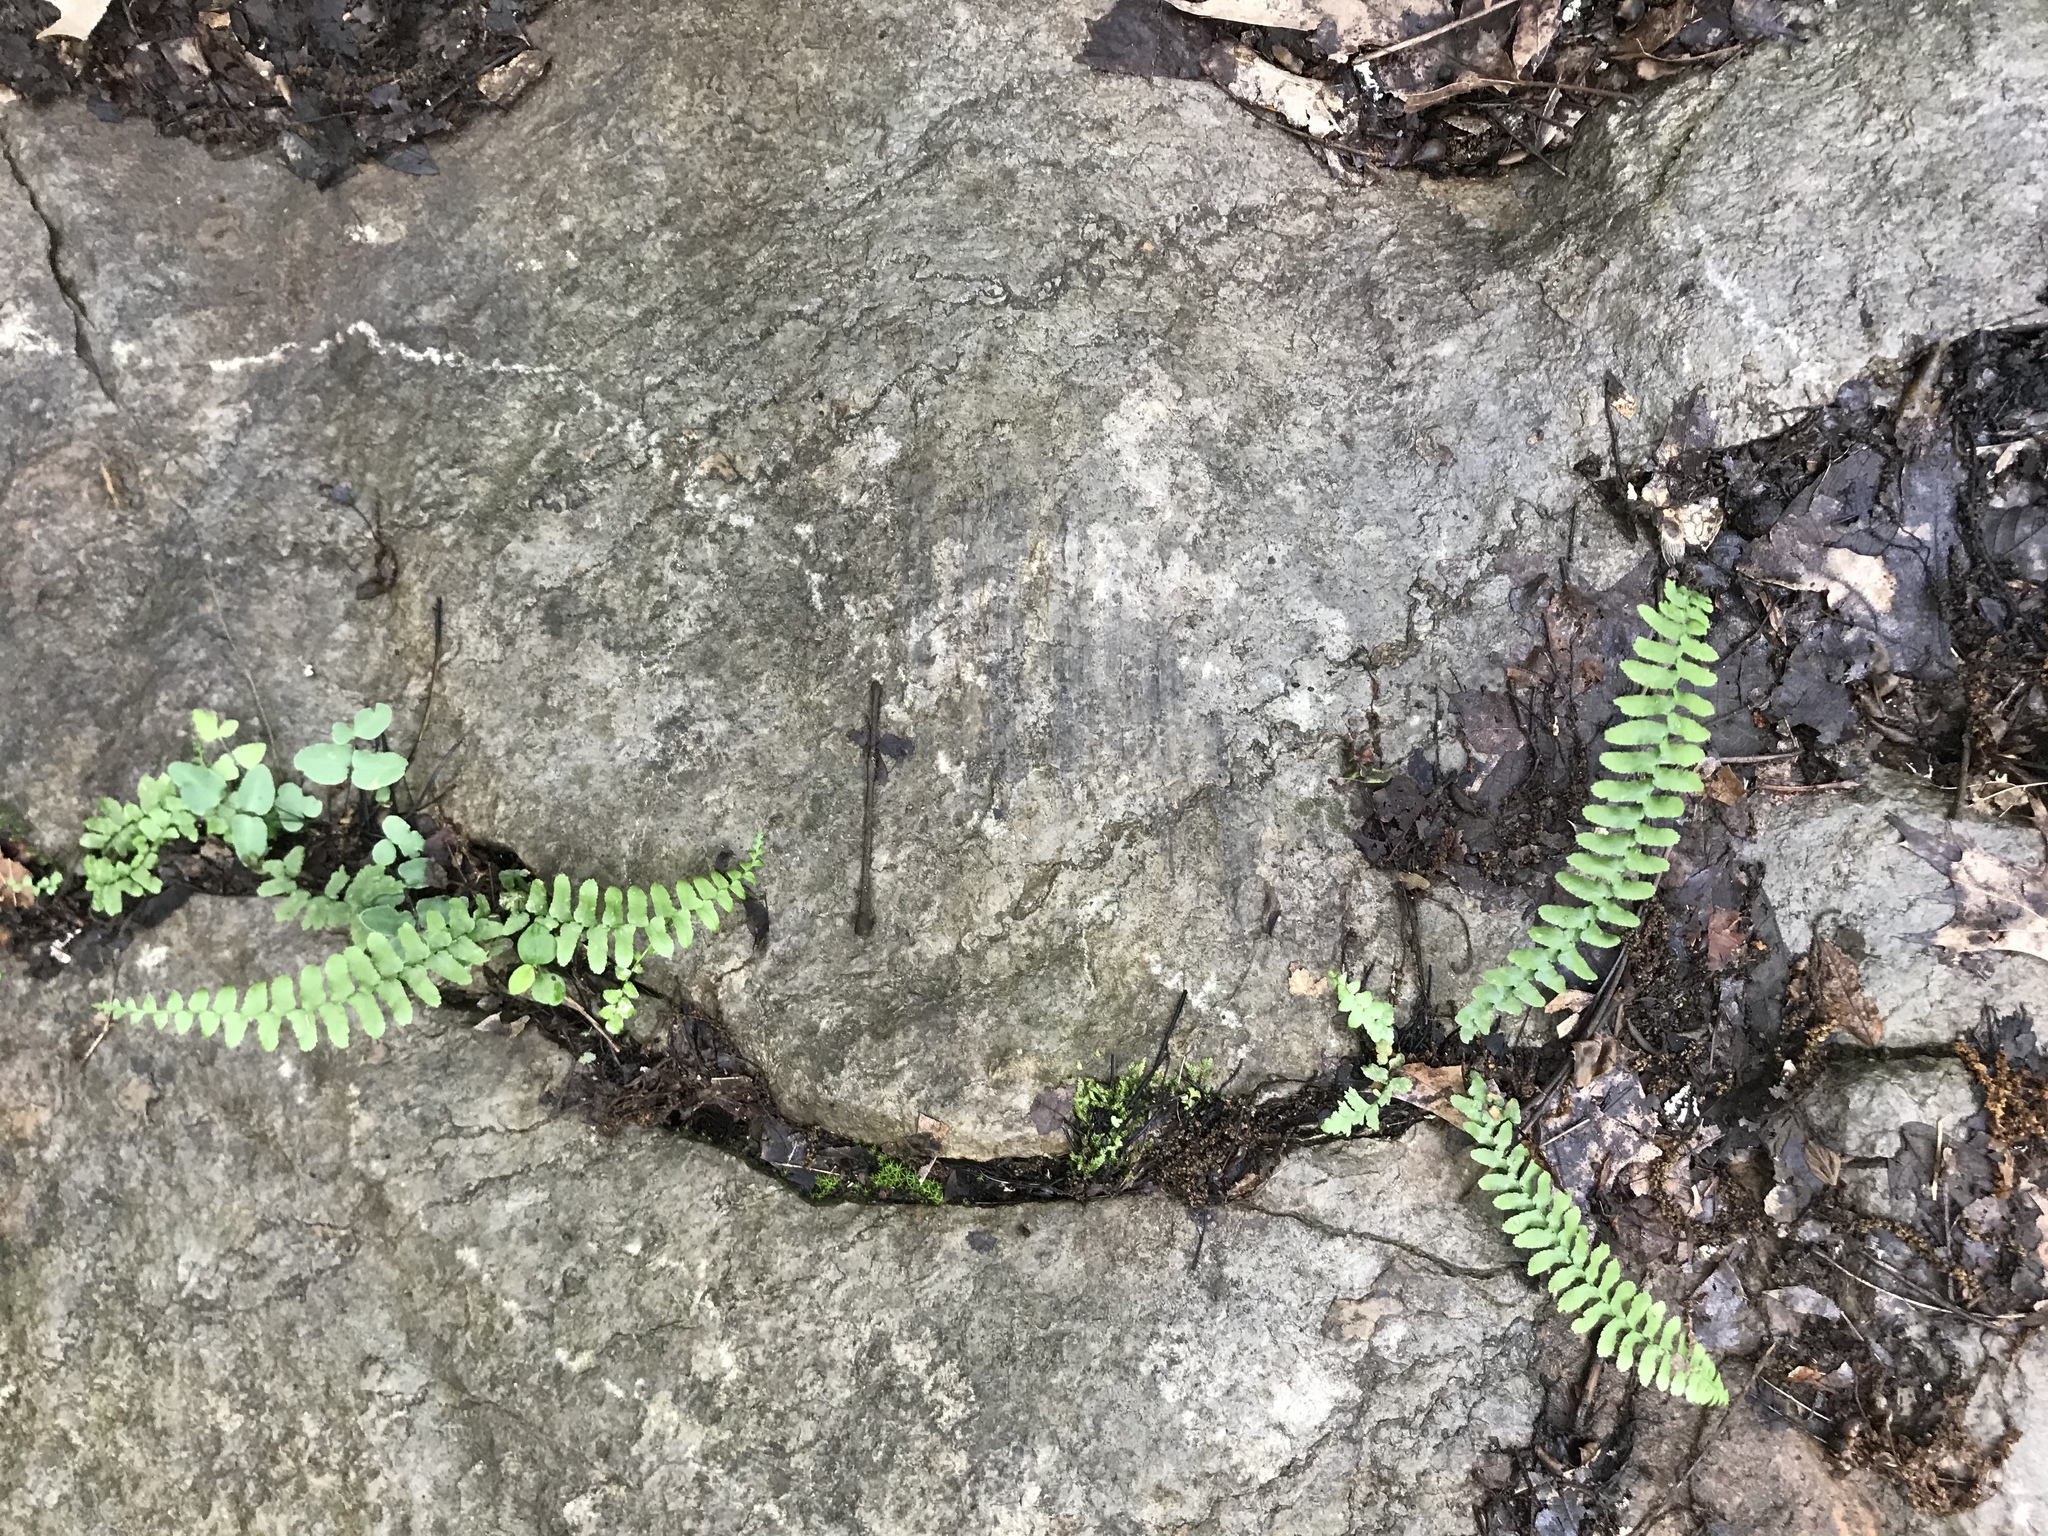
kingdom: Plantae
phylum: Tracheophyta
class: Polypodiopsida
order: Polypodiales
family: Aspleniaceae
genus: Asplenium
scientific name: Asplenium platyneuron
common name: Ebony spleenwort
